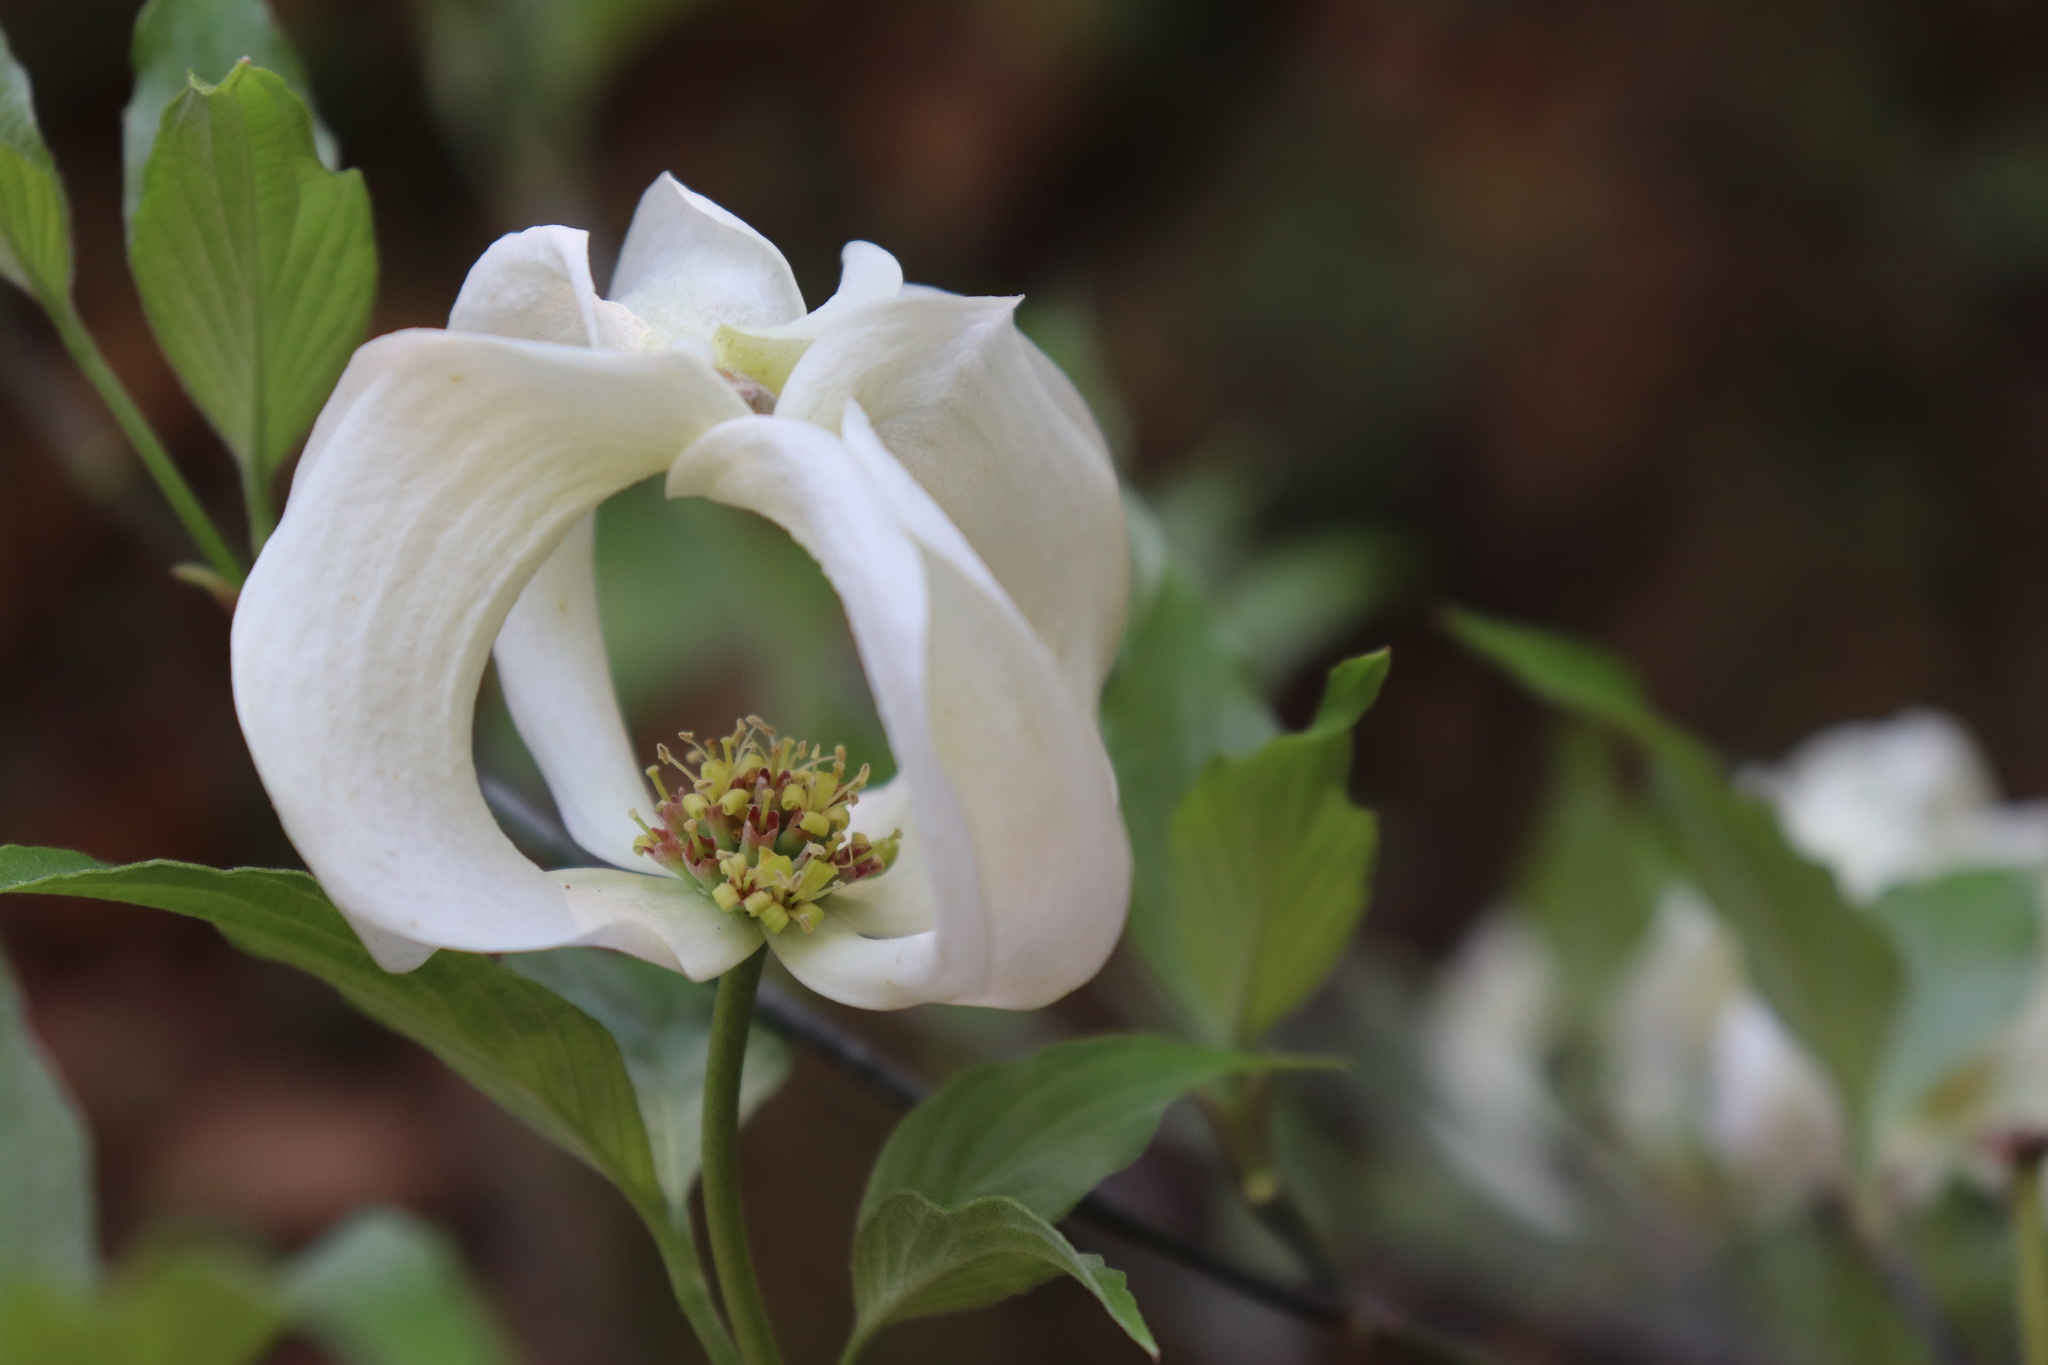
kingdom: Plantae
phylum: Tracheophyta
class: Magnoliopsida
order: Cornales
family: Cornaceae
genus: Cornus
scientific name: Cornus florida
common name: Flowering dogwood
